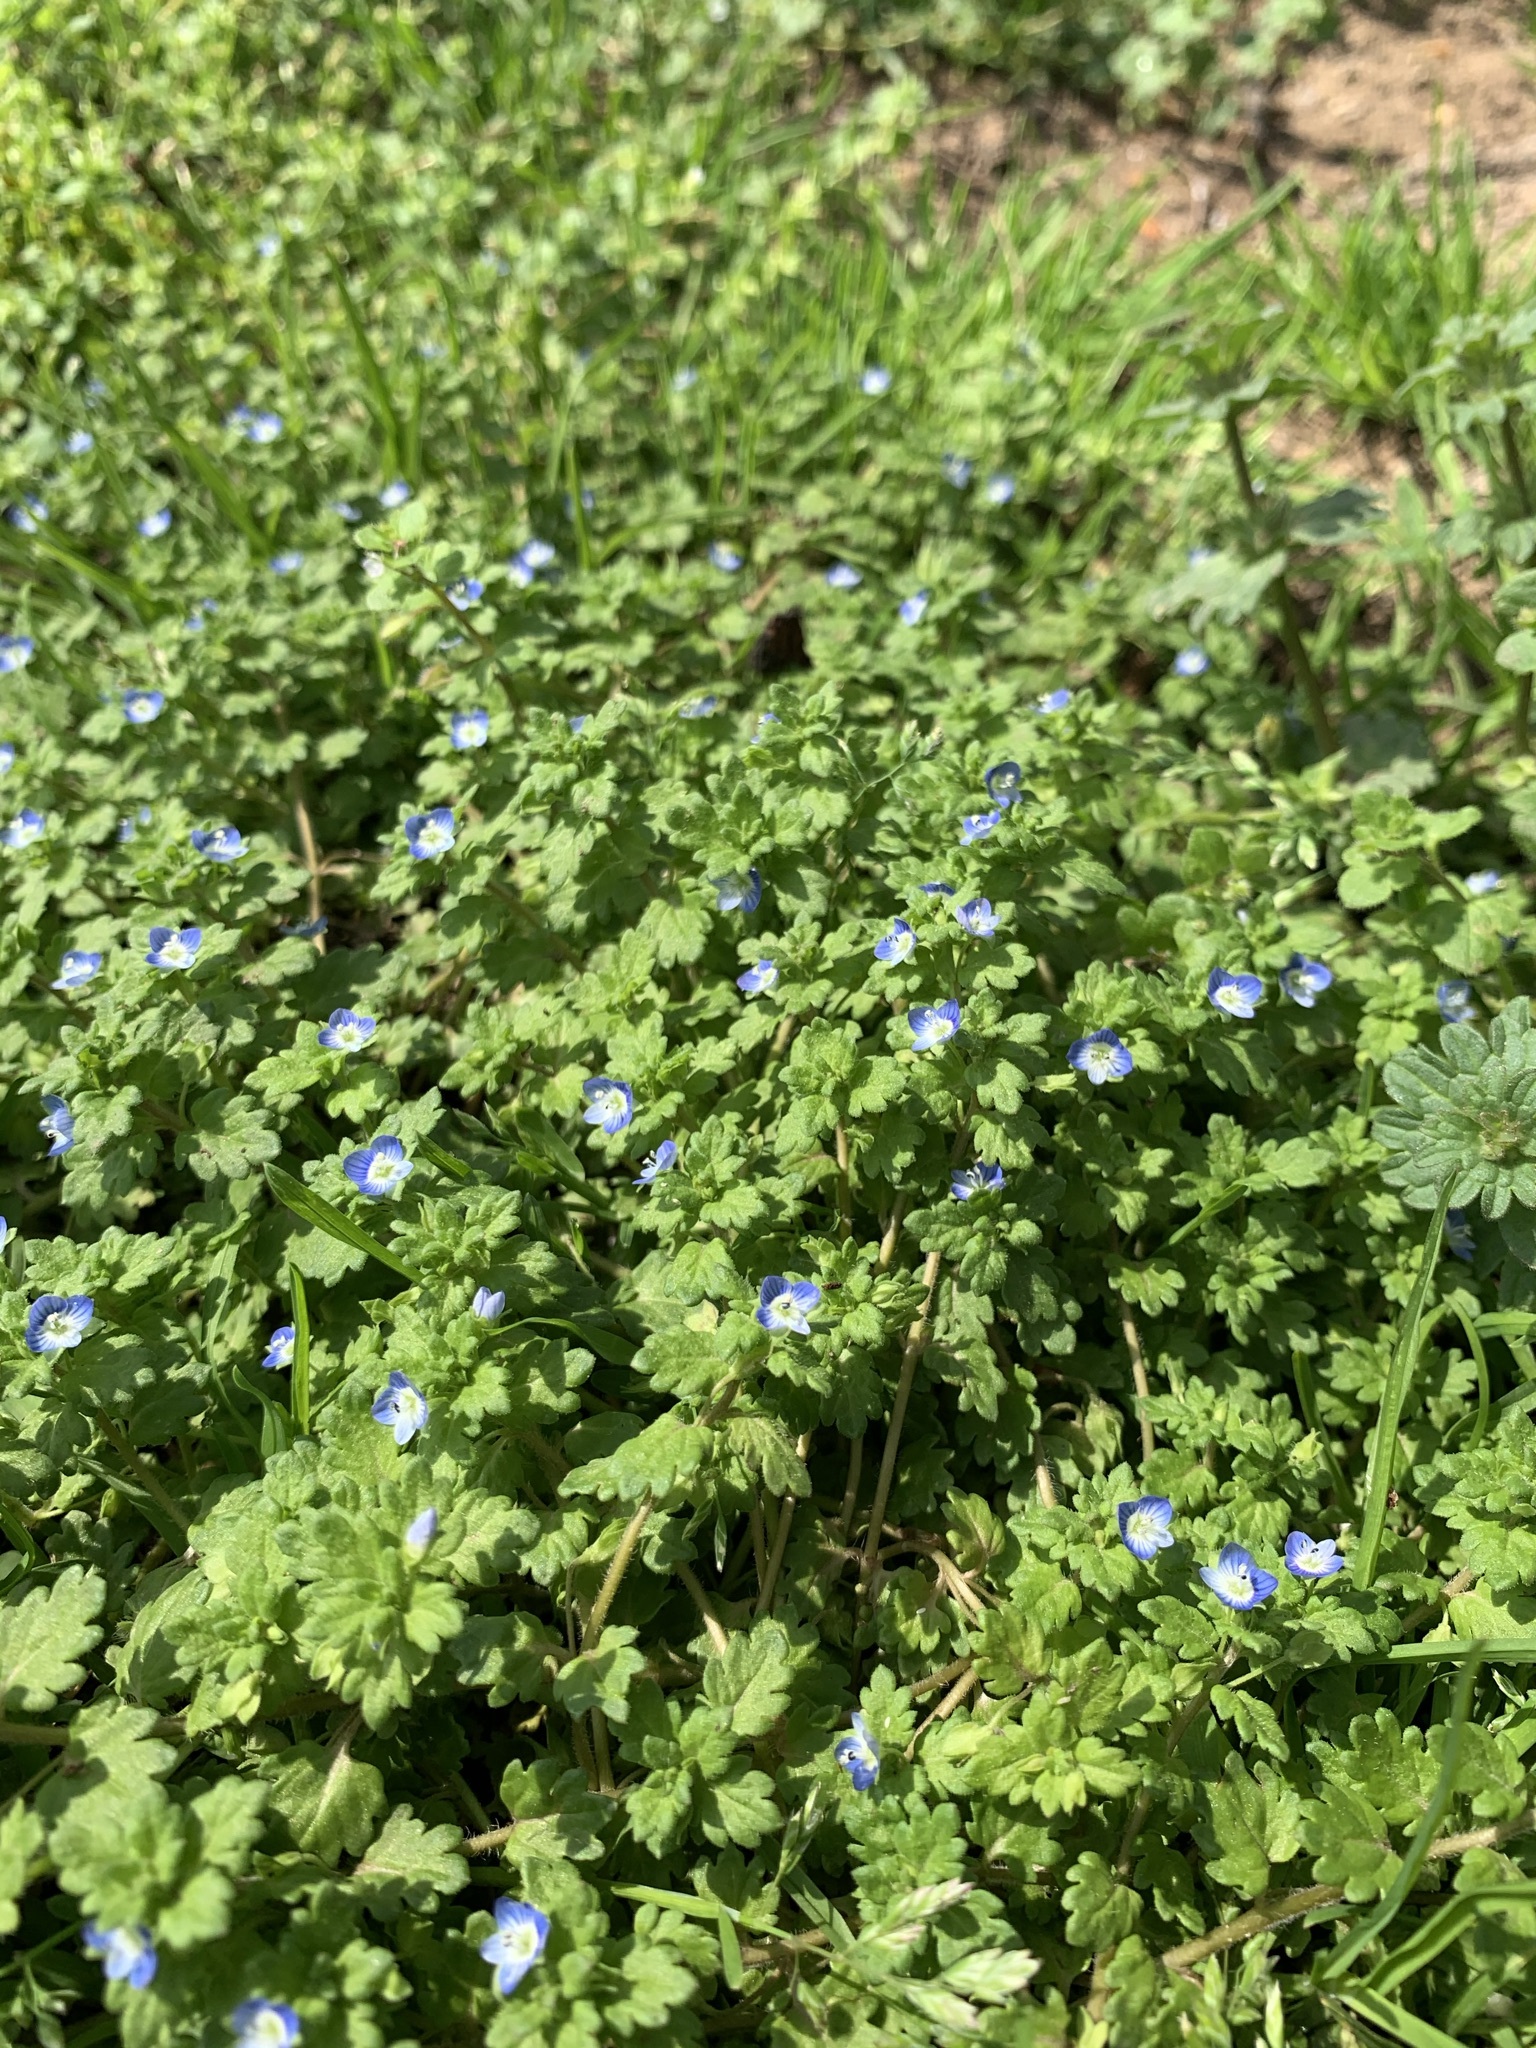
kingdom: Plantae
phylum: Tracheophyta
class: Magnoliopsida
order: Lamiales
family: Plantaginaceae
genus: Veronica
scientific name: Veronica persica
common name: Common field-speedwell
